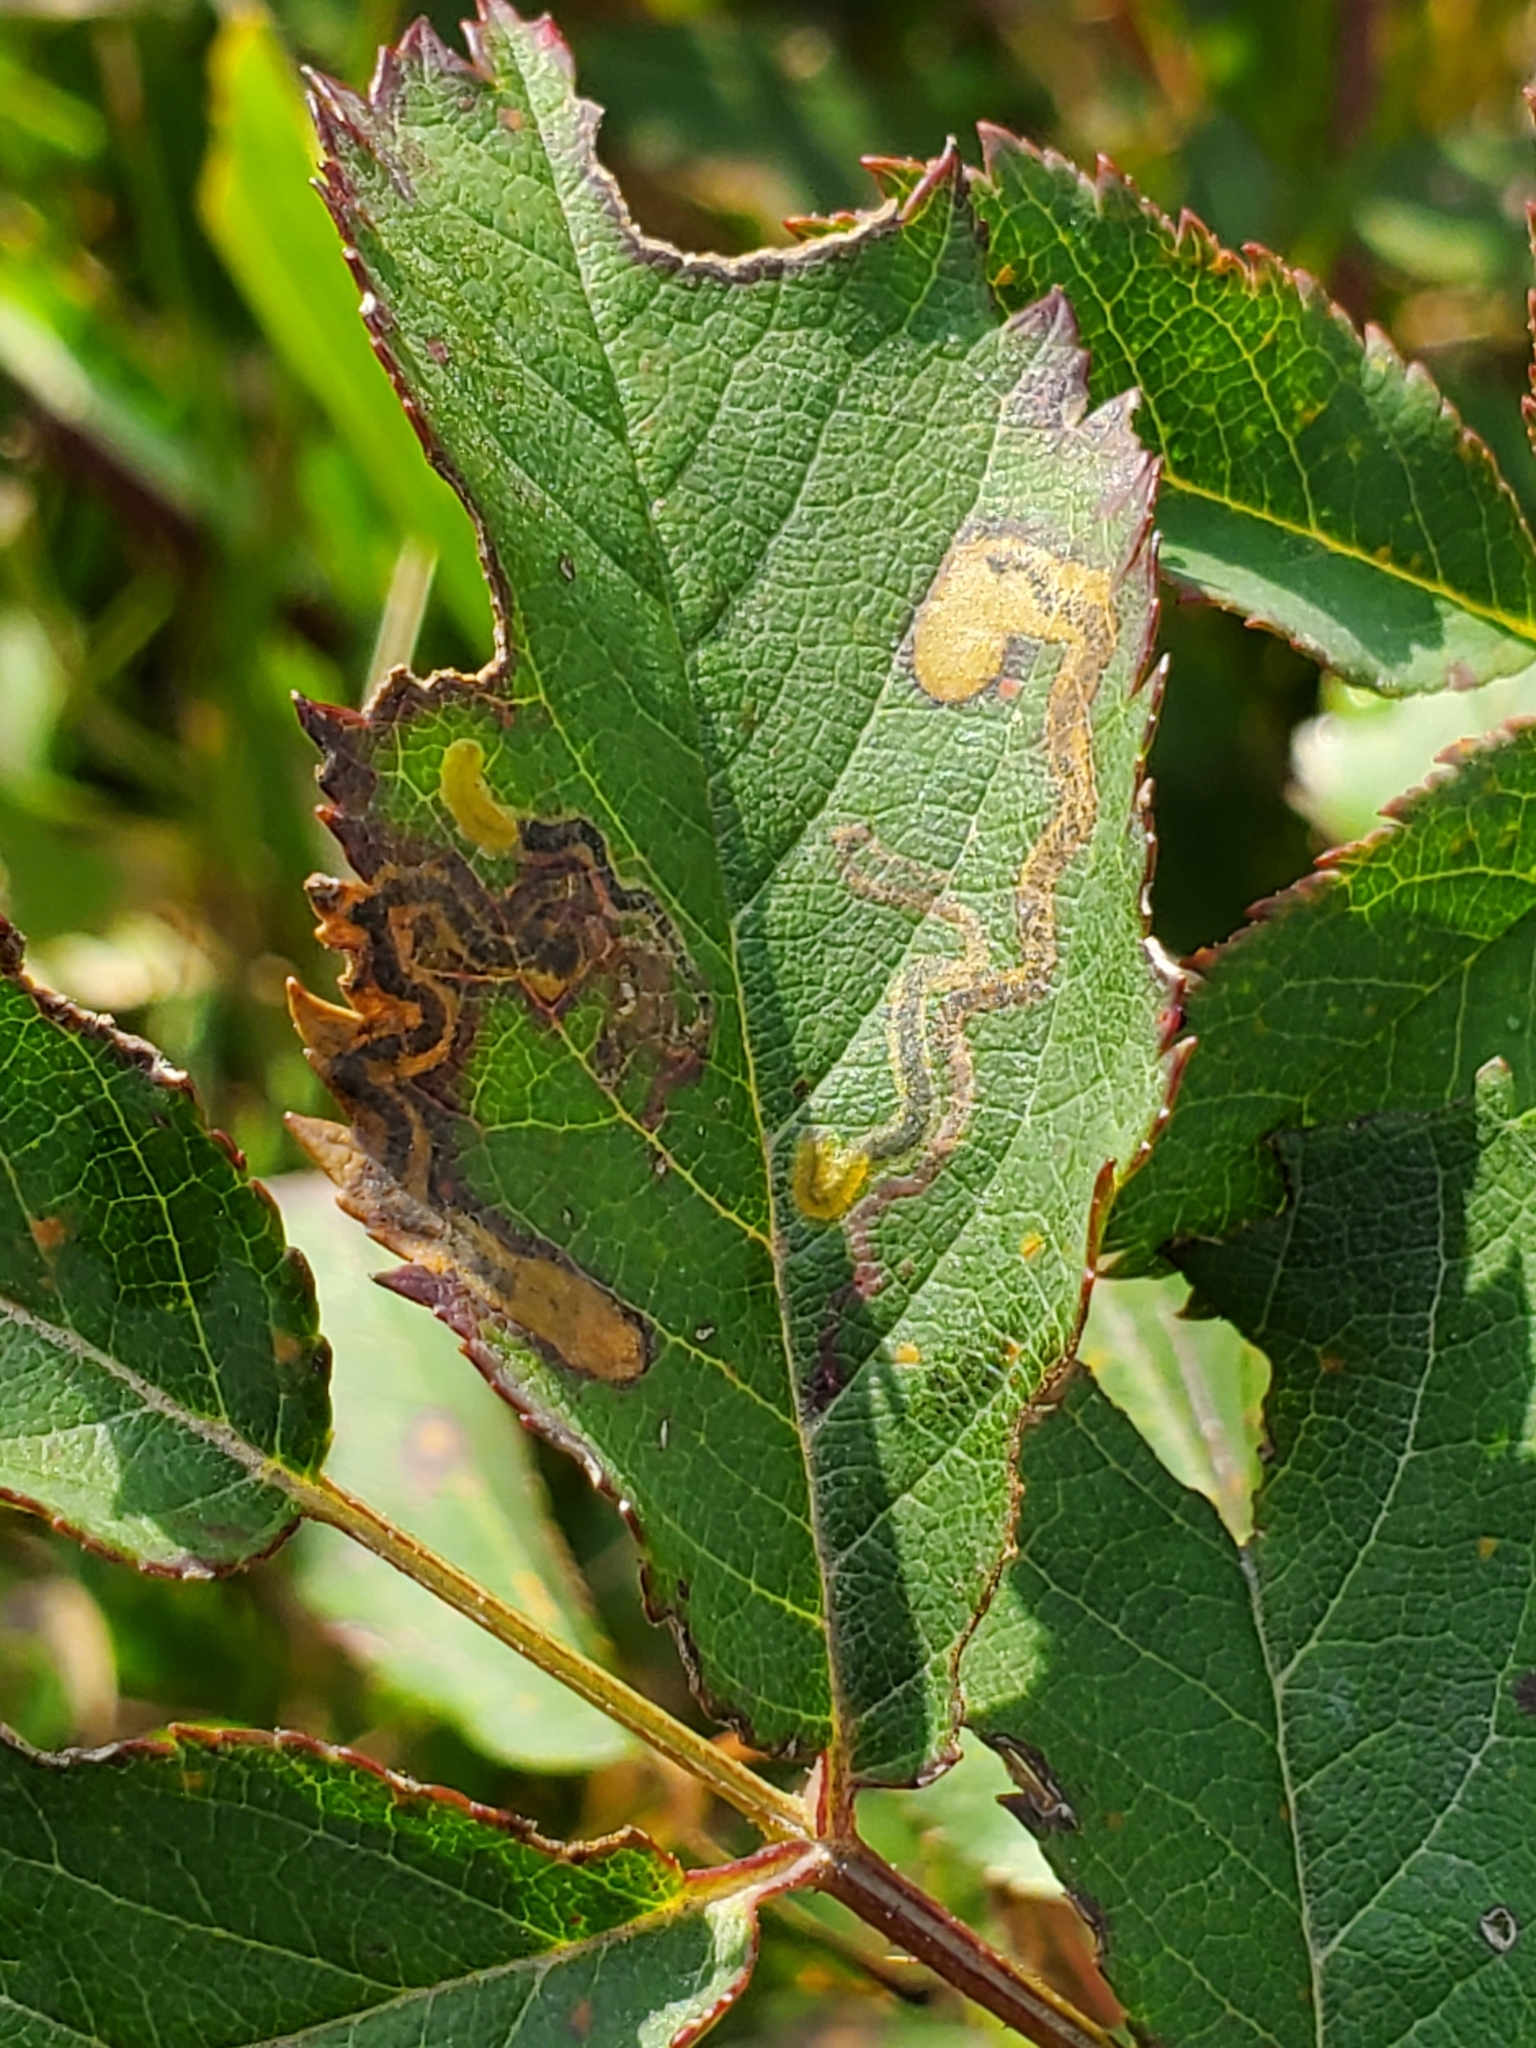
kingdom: Animalia
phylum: Arthropoda
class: Insecta
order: Lepidoptera
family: Nepticulidae
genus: Stigmella
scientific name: Stigmella rosaefoliella
